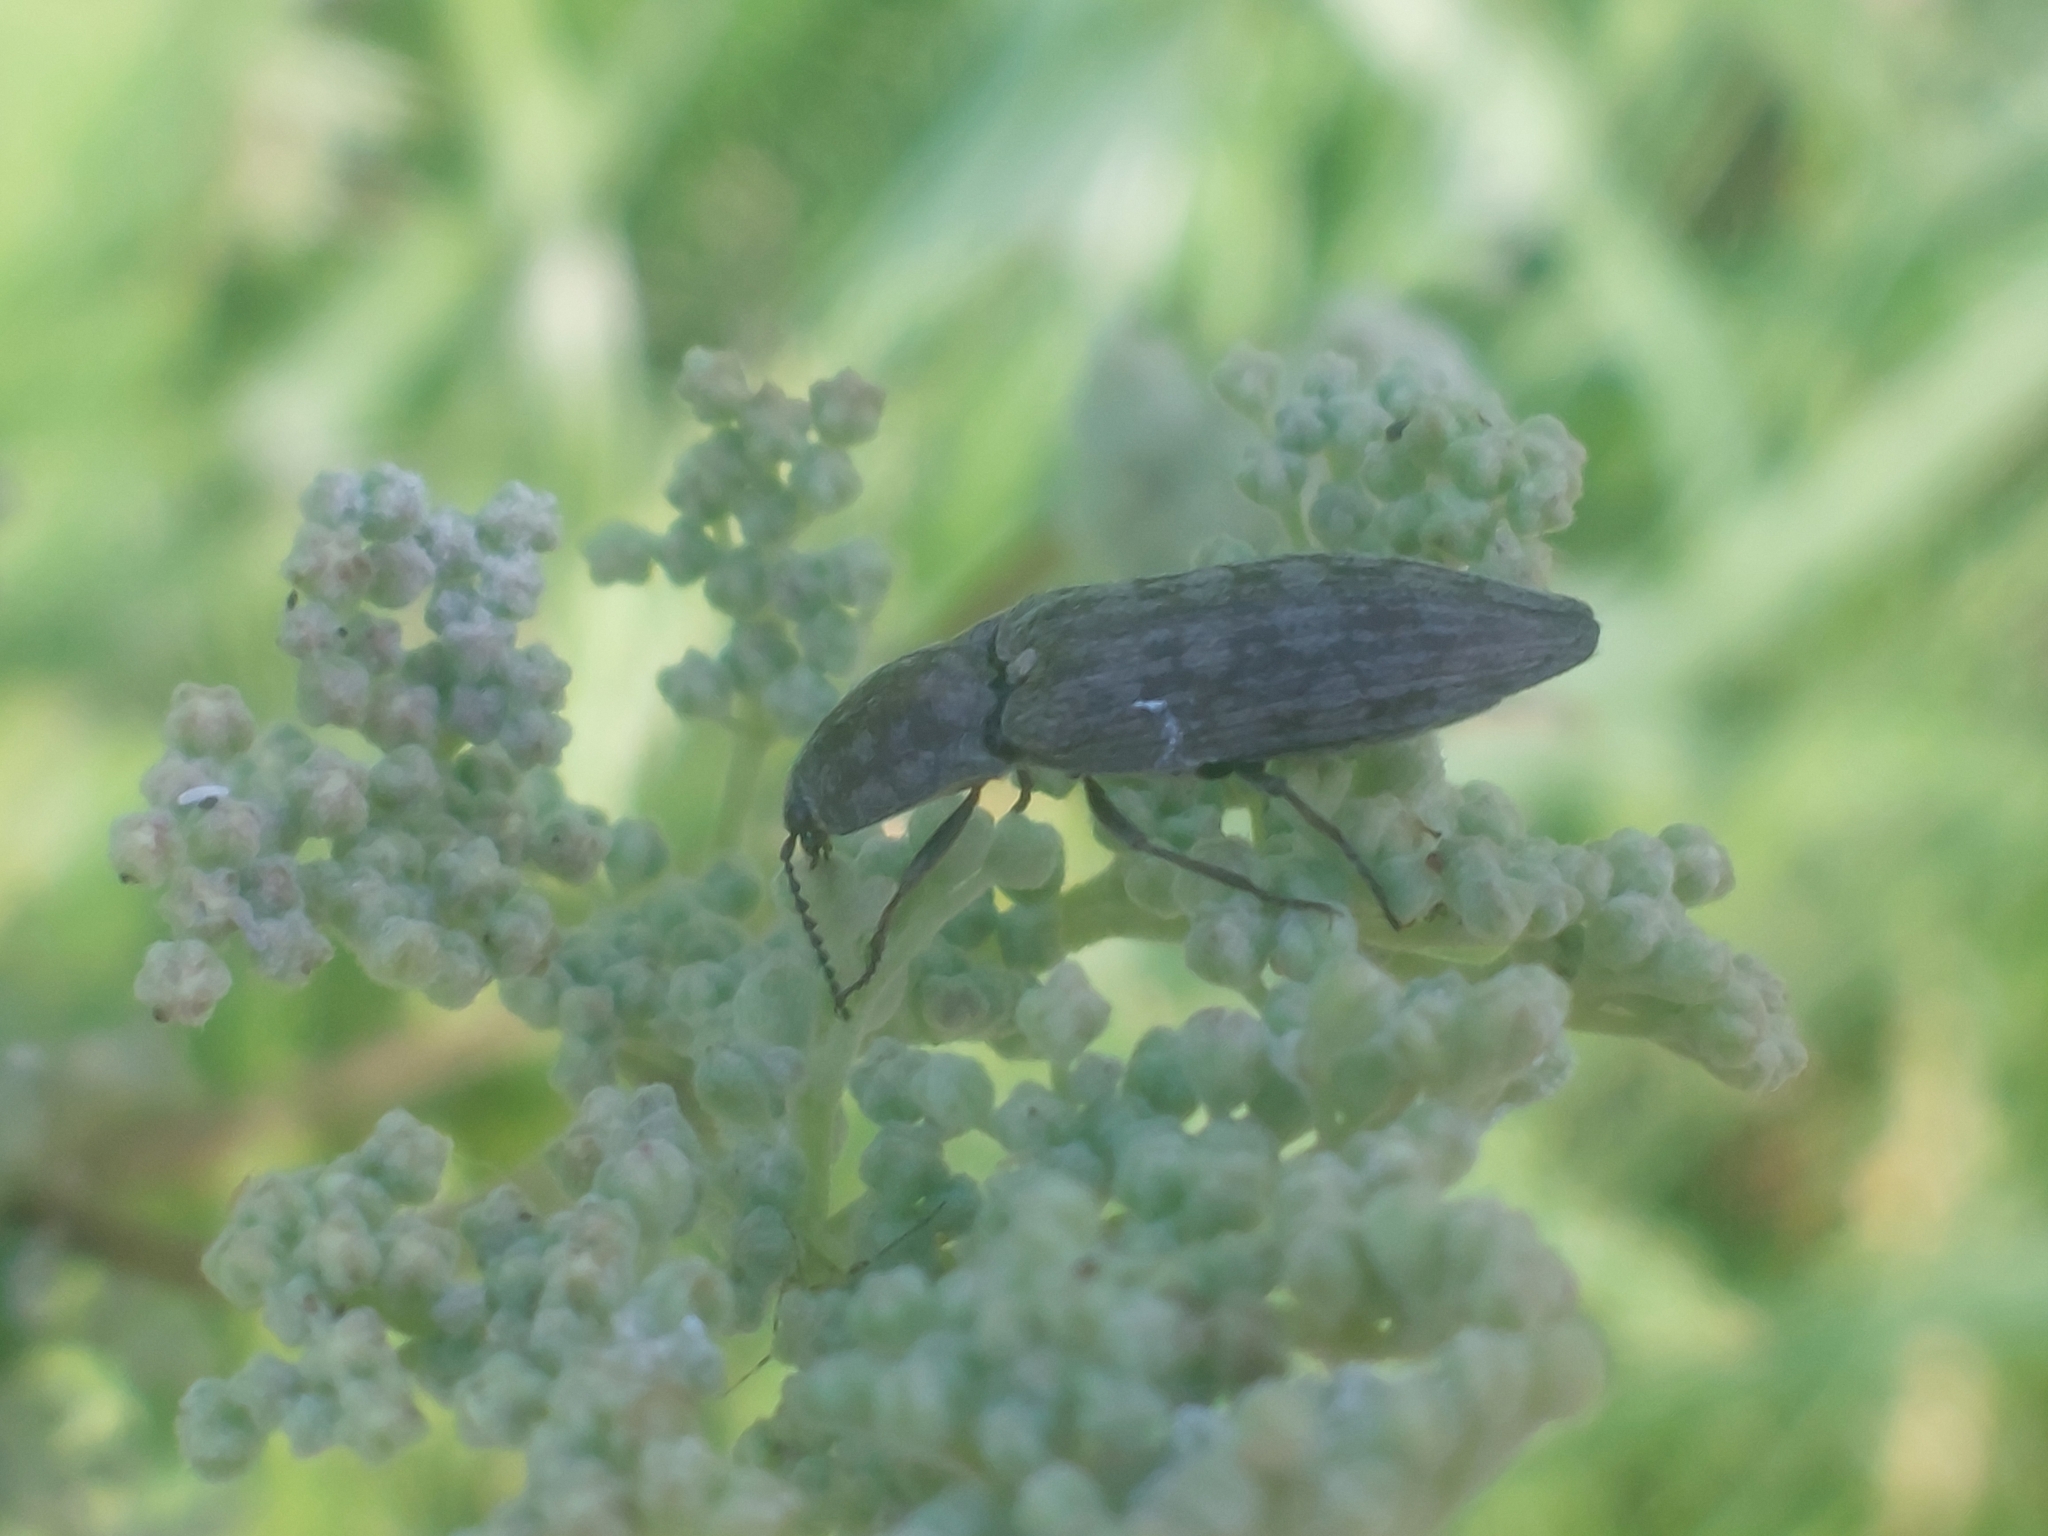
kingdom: Animalia
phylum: Arthropoda
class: Insecta
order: Coleoptera
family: Elateridae
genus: Actenicerus
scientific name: Actenicerus sjaelandicus
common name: Marsh click beetle
